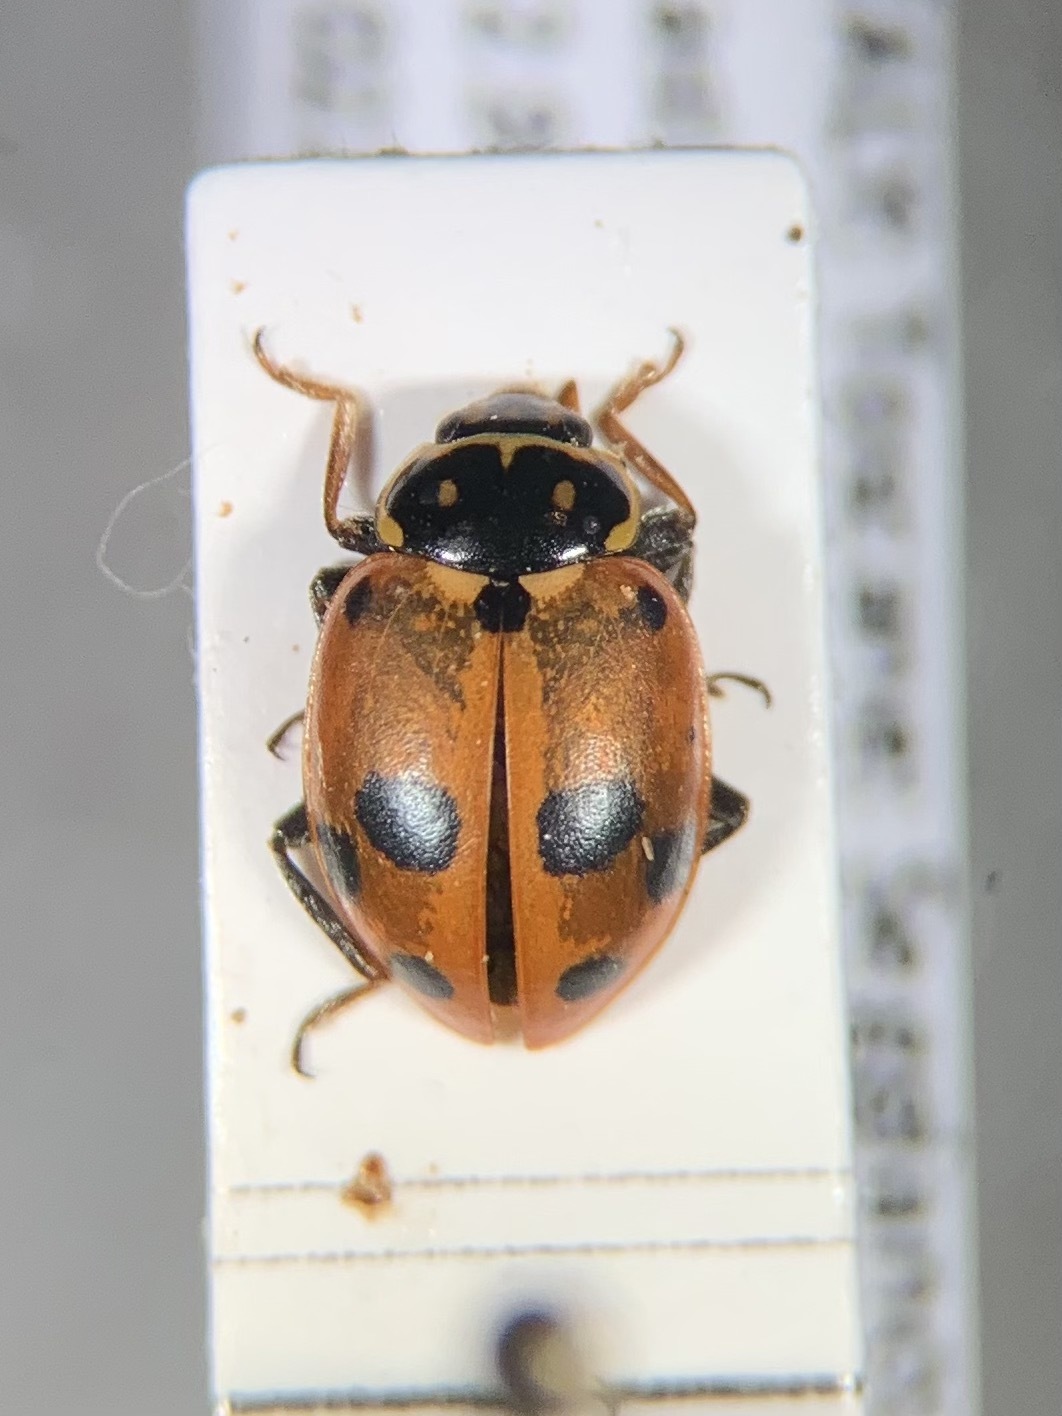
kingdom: Animalia
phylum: Arthropoda
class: Insecta
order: Coleoptera
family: Coccinellidae
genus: Hippodamia
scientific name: Hippodamia variegata
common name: Ladybird beetle
